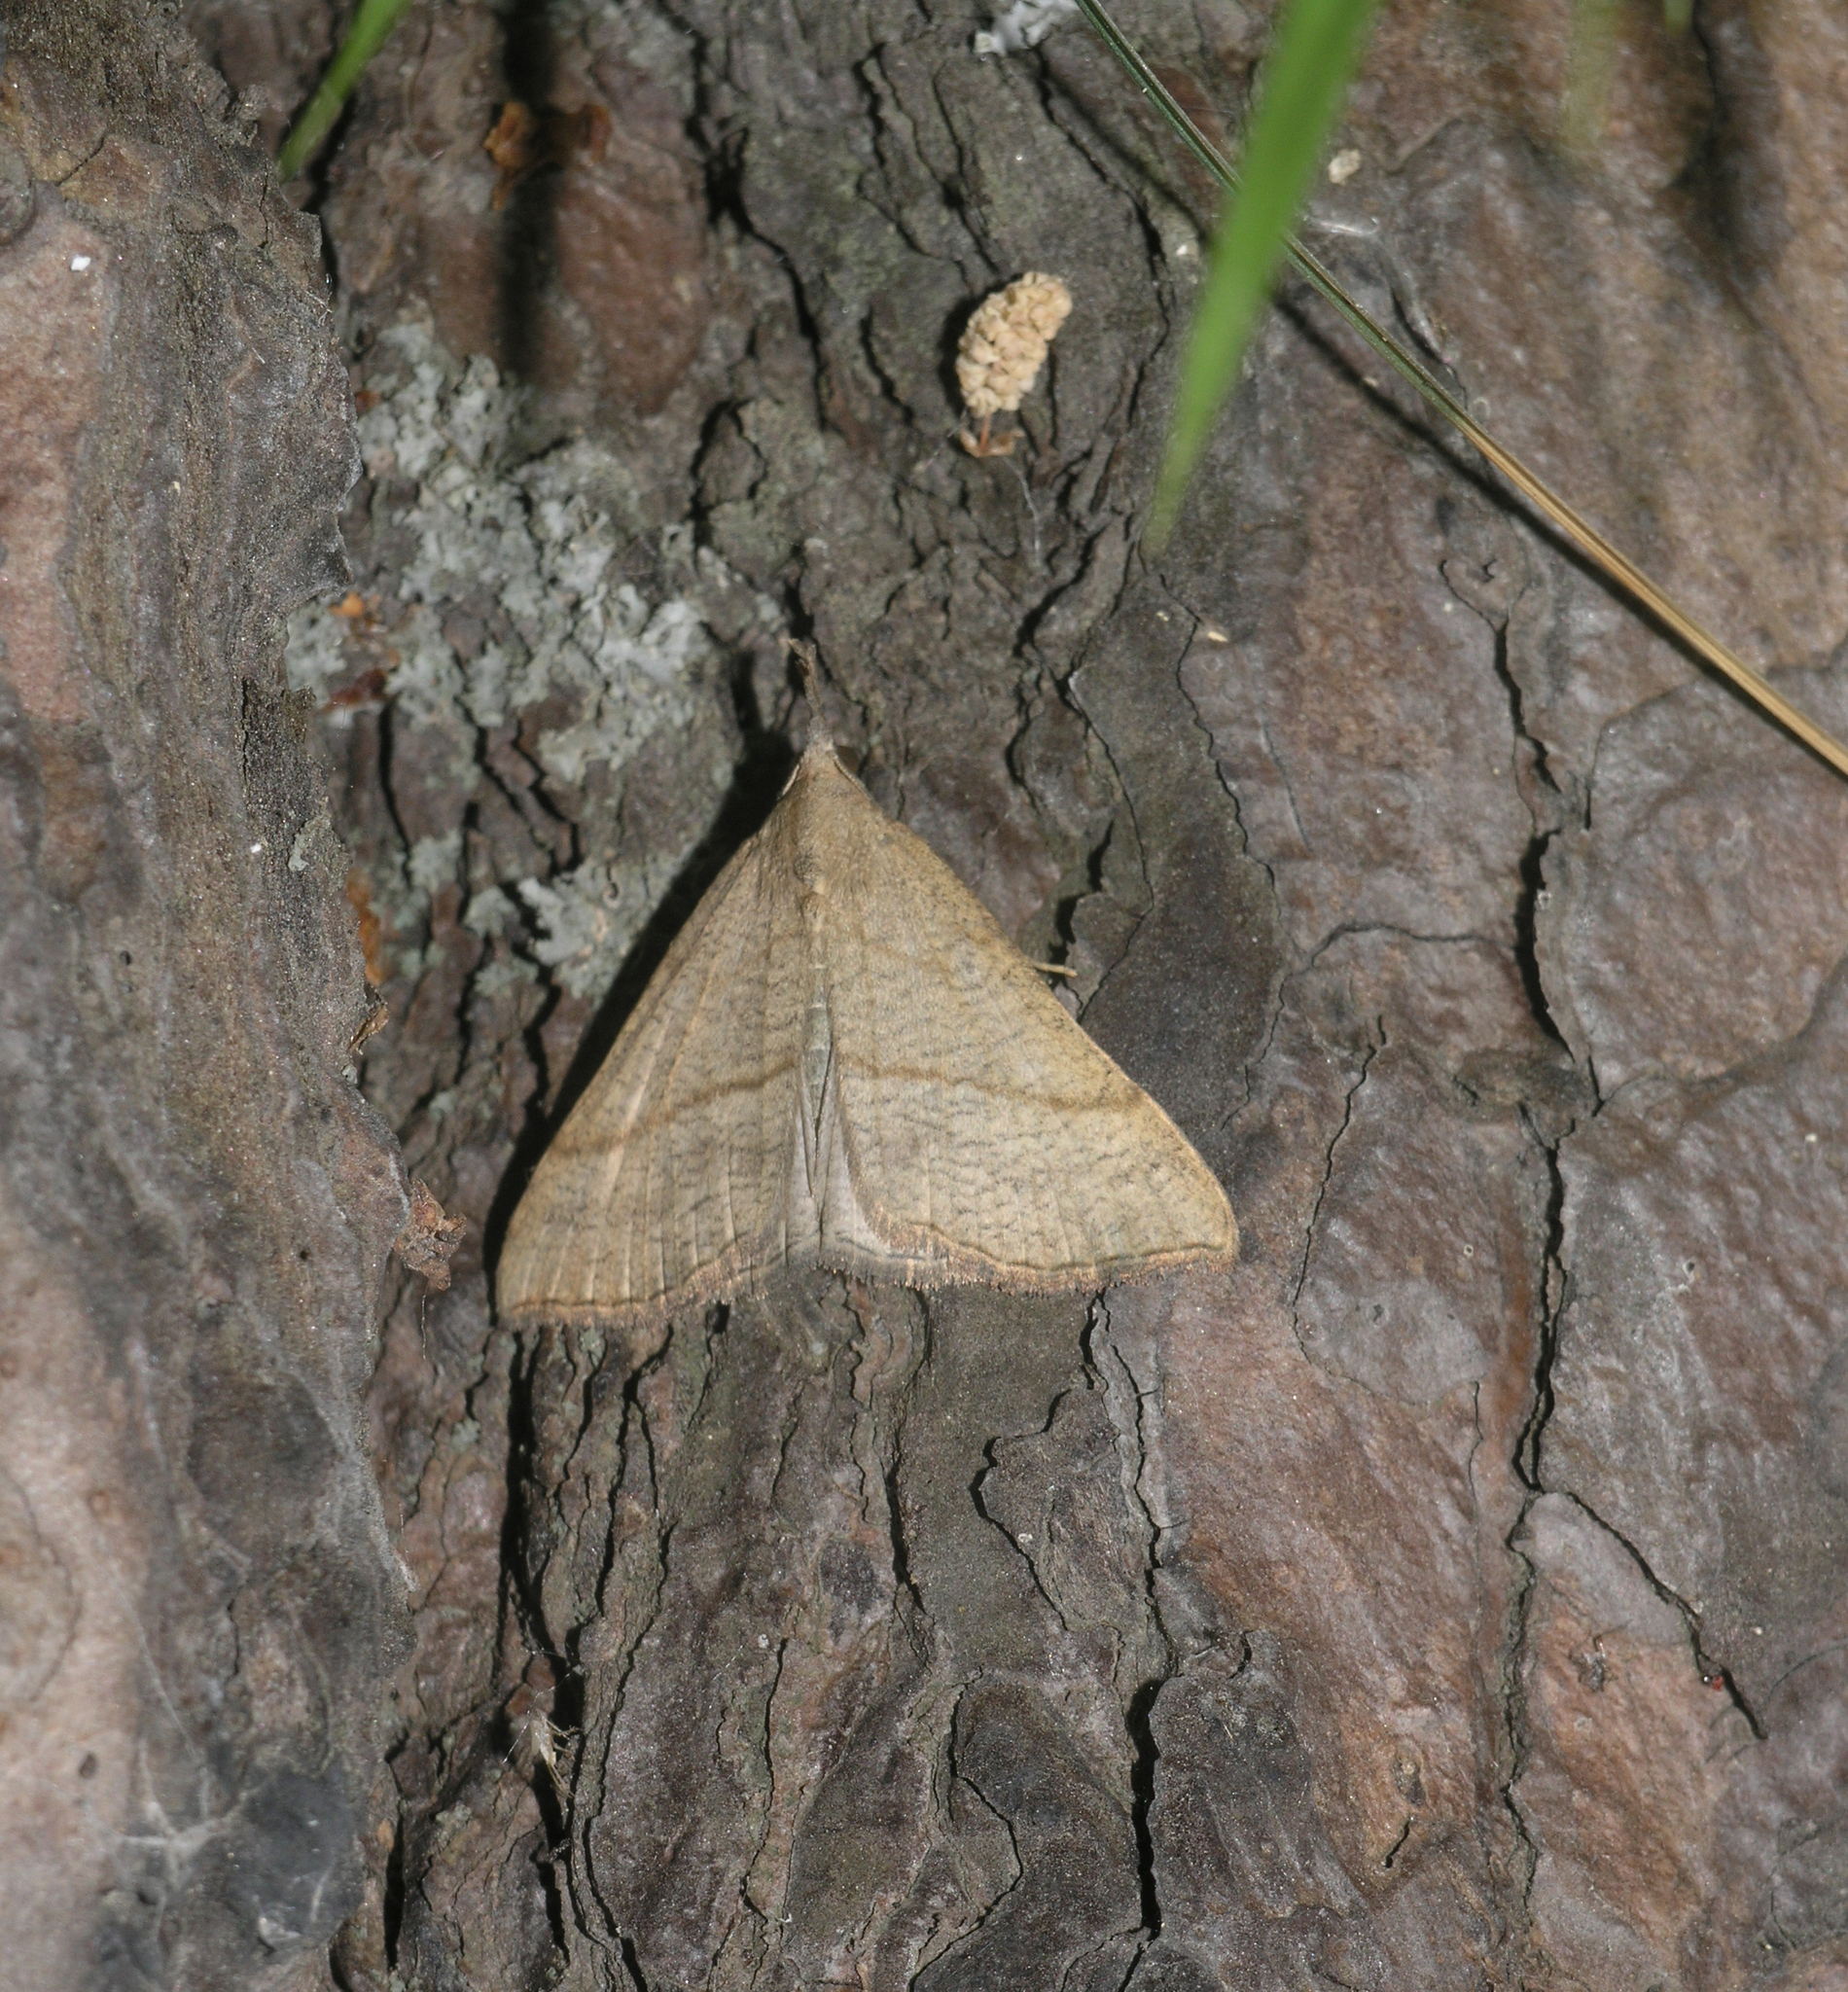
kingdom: Animalia
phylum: Arthropoda
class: Insecta
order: Lepidoptera
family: Erebidae
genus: Hypena
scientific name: Hypena proboscidalis
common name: Snout
